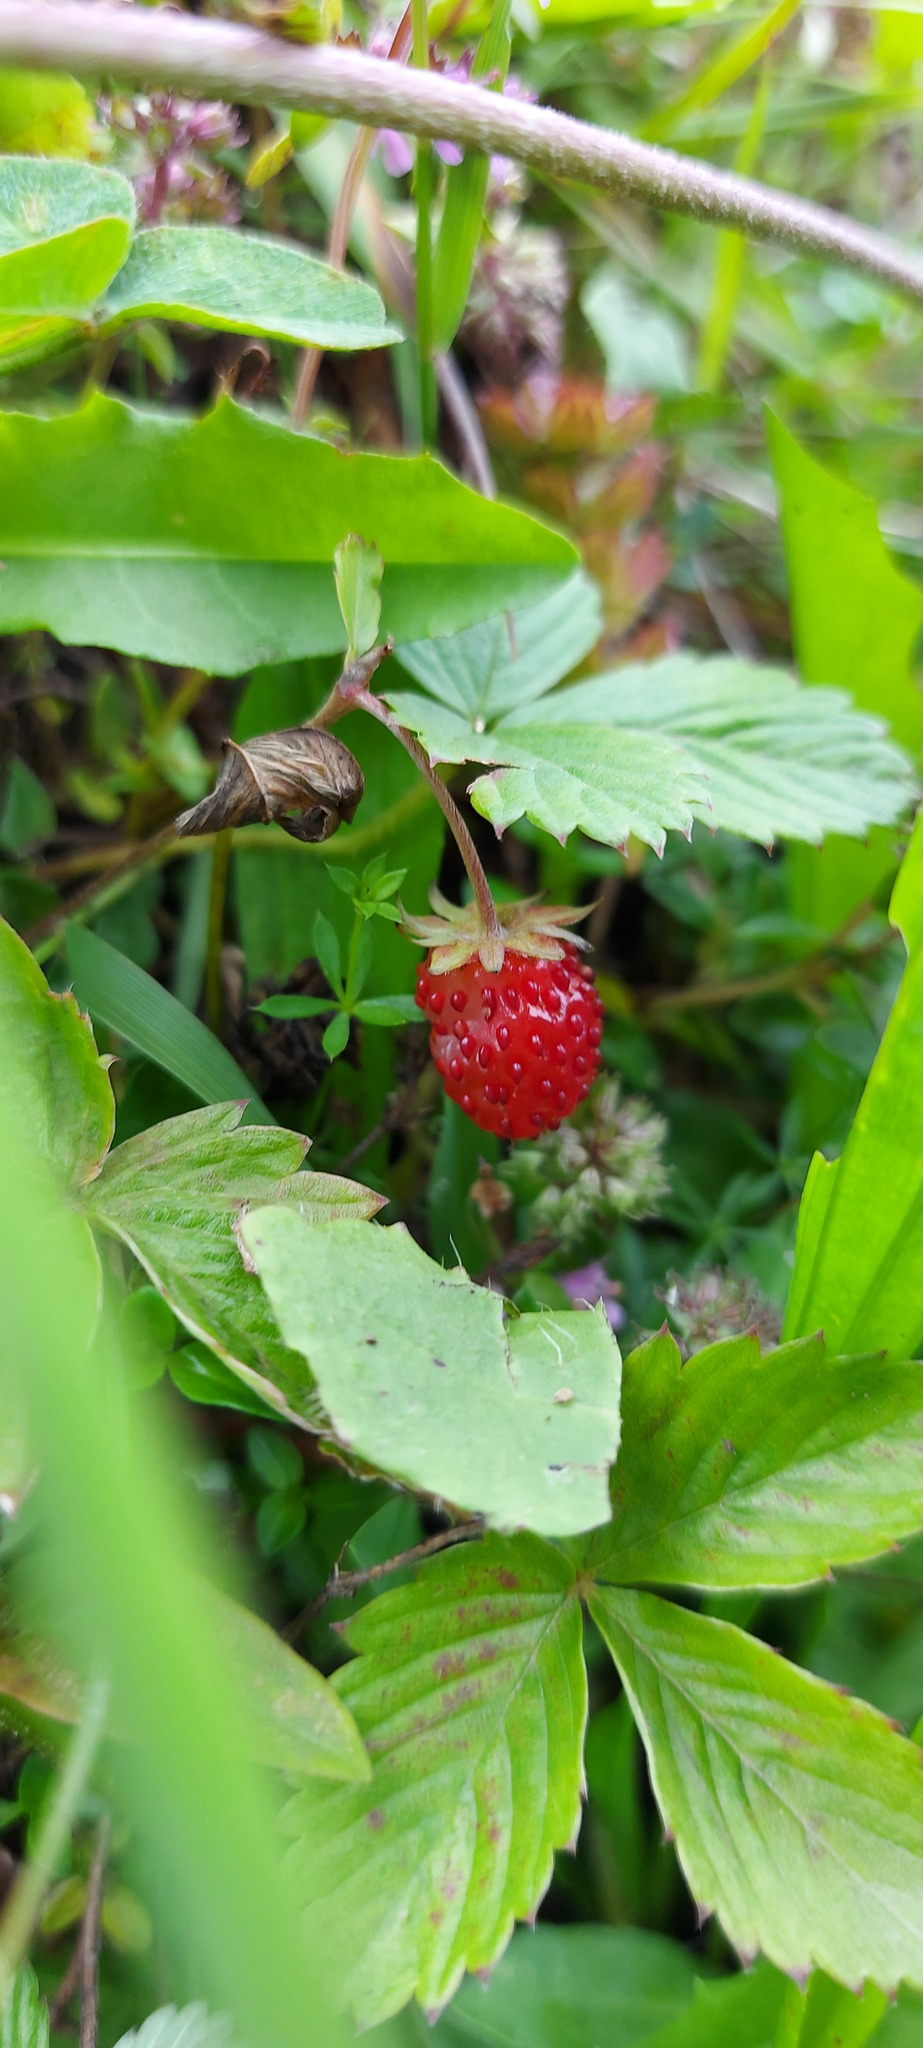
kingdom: Plantae
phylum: Tracheophyta
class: Magnoliopsida
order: Rosales
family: Rosaceae
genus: Fragaria
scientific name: Fragaria vesca
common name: Wild strawberry
